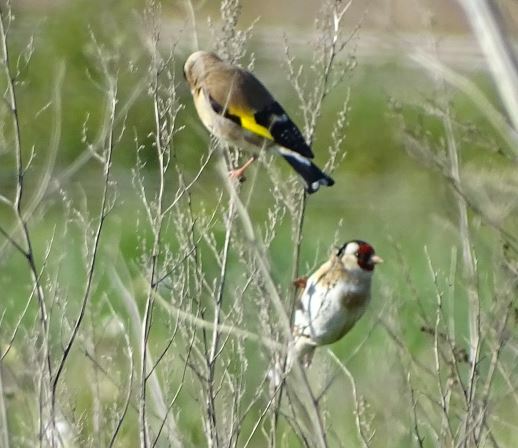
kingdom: Animalia
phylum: Chordata
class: Aves
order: Passeriformes
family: Fringillidae
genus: Carduelis
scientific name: Carduelis carduelis
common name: European goldfinch
